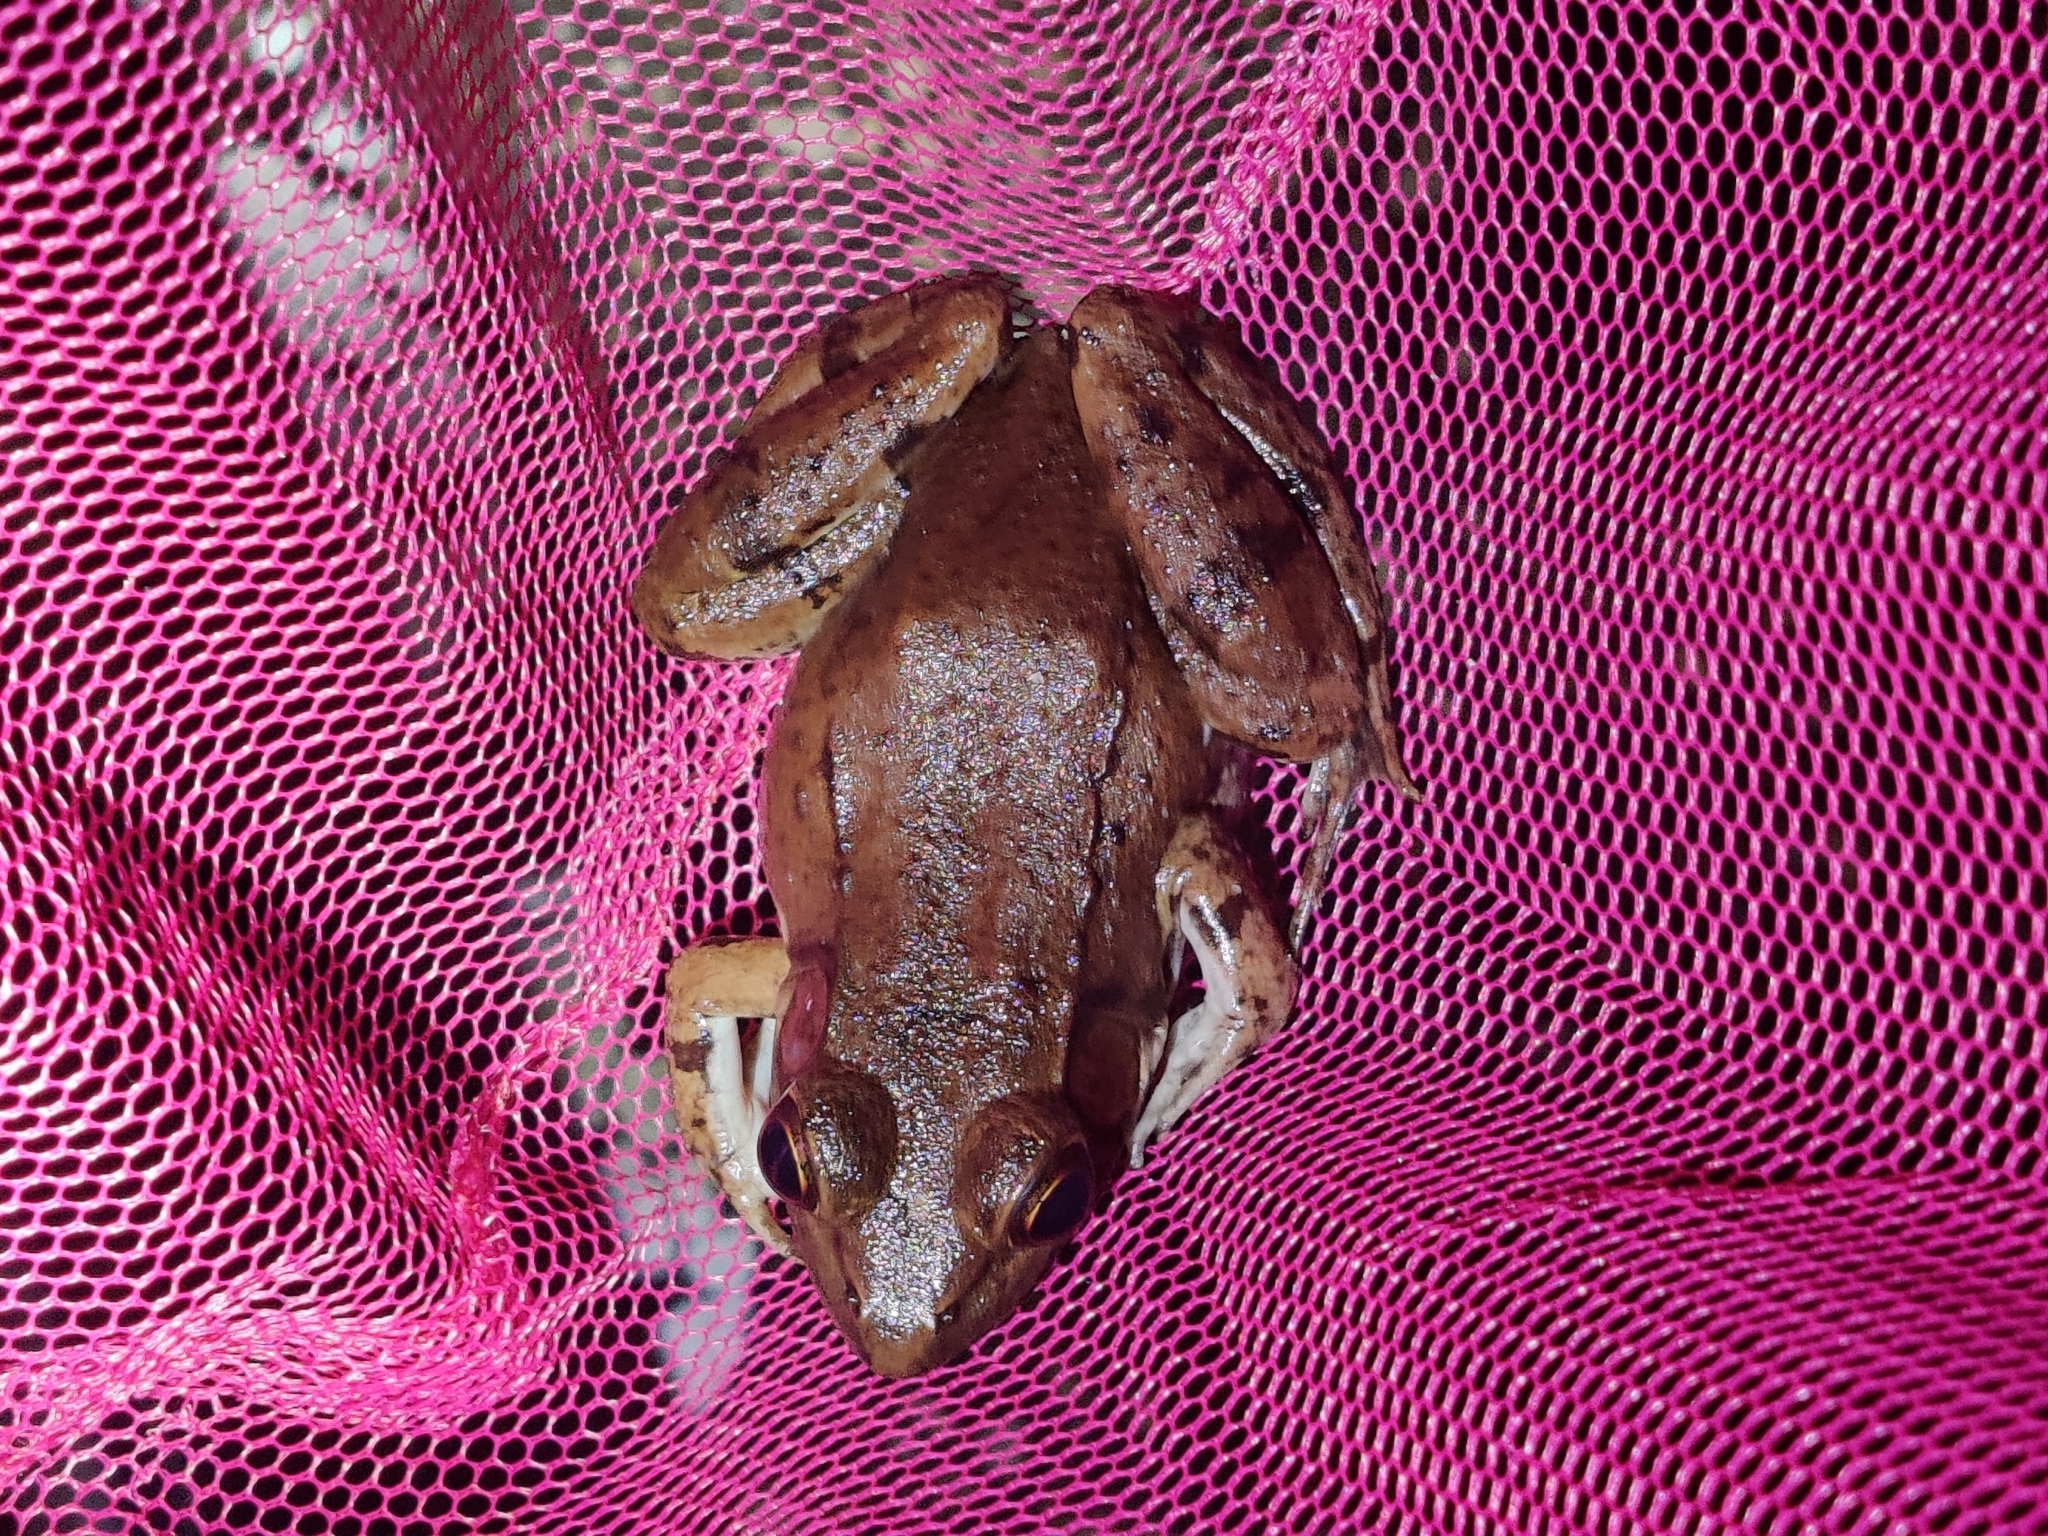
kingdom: Animalia
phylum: Chordata
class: Amphibia
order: Anura
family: Ranidae
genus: Lithobates
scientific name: Lithobates clamitans
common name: Green frog
